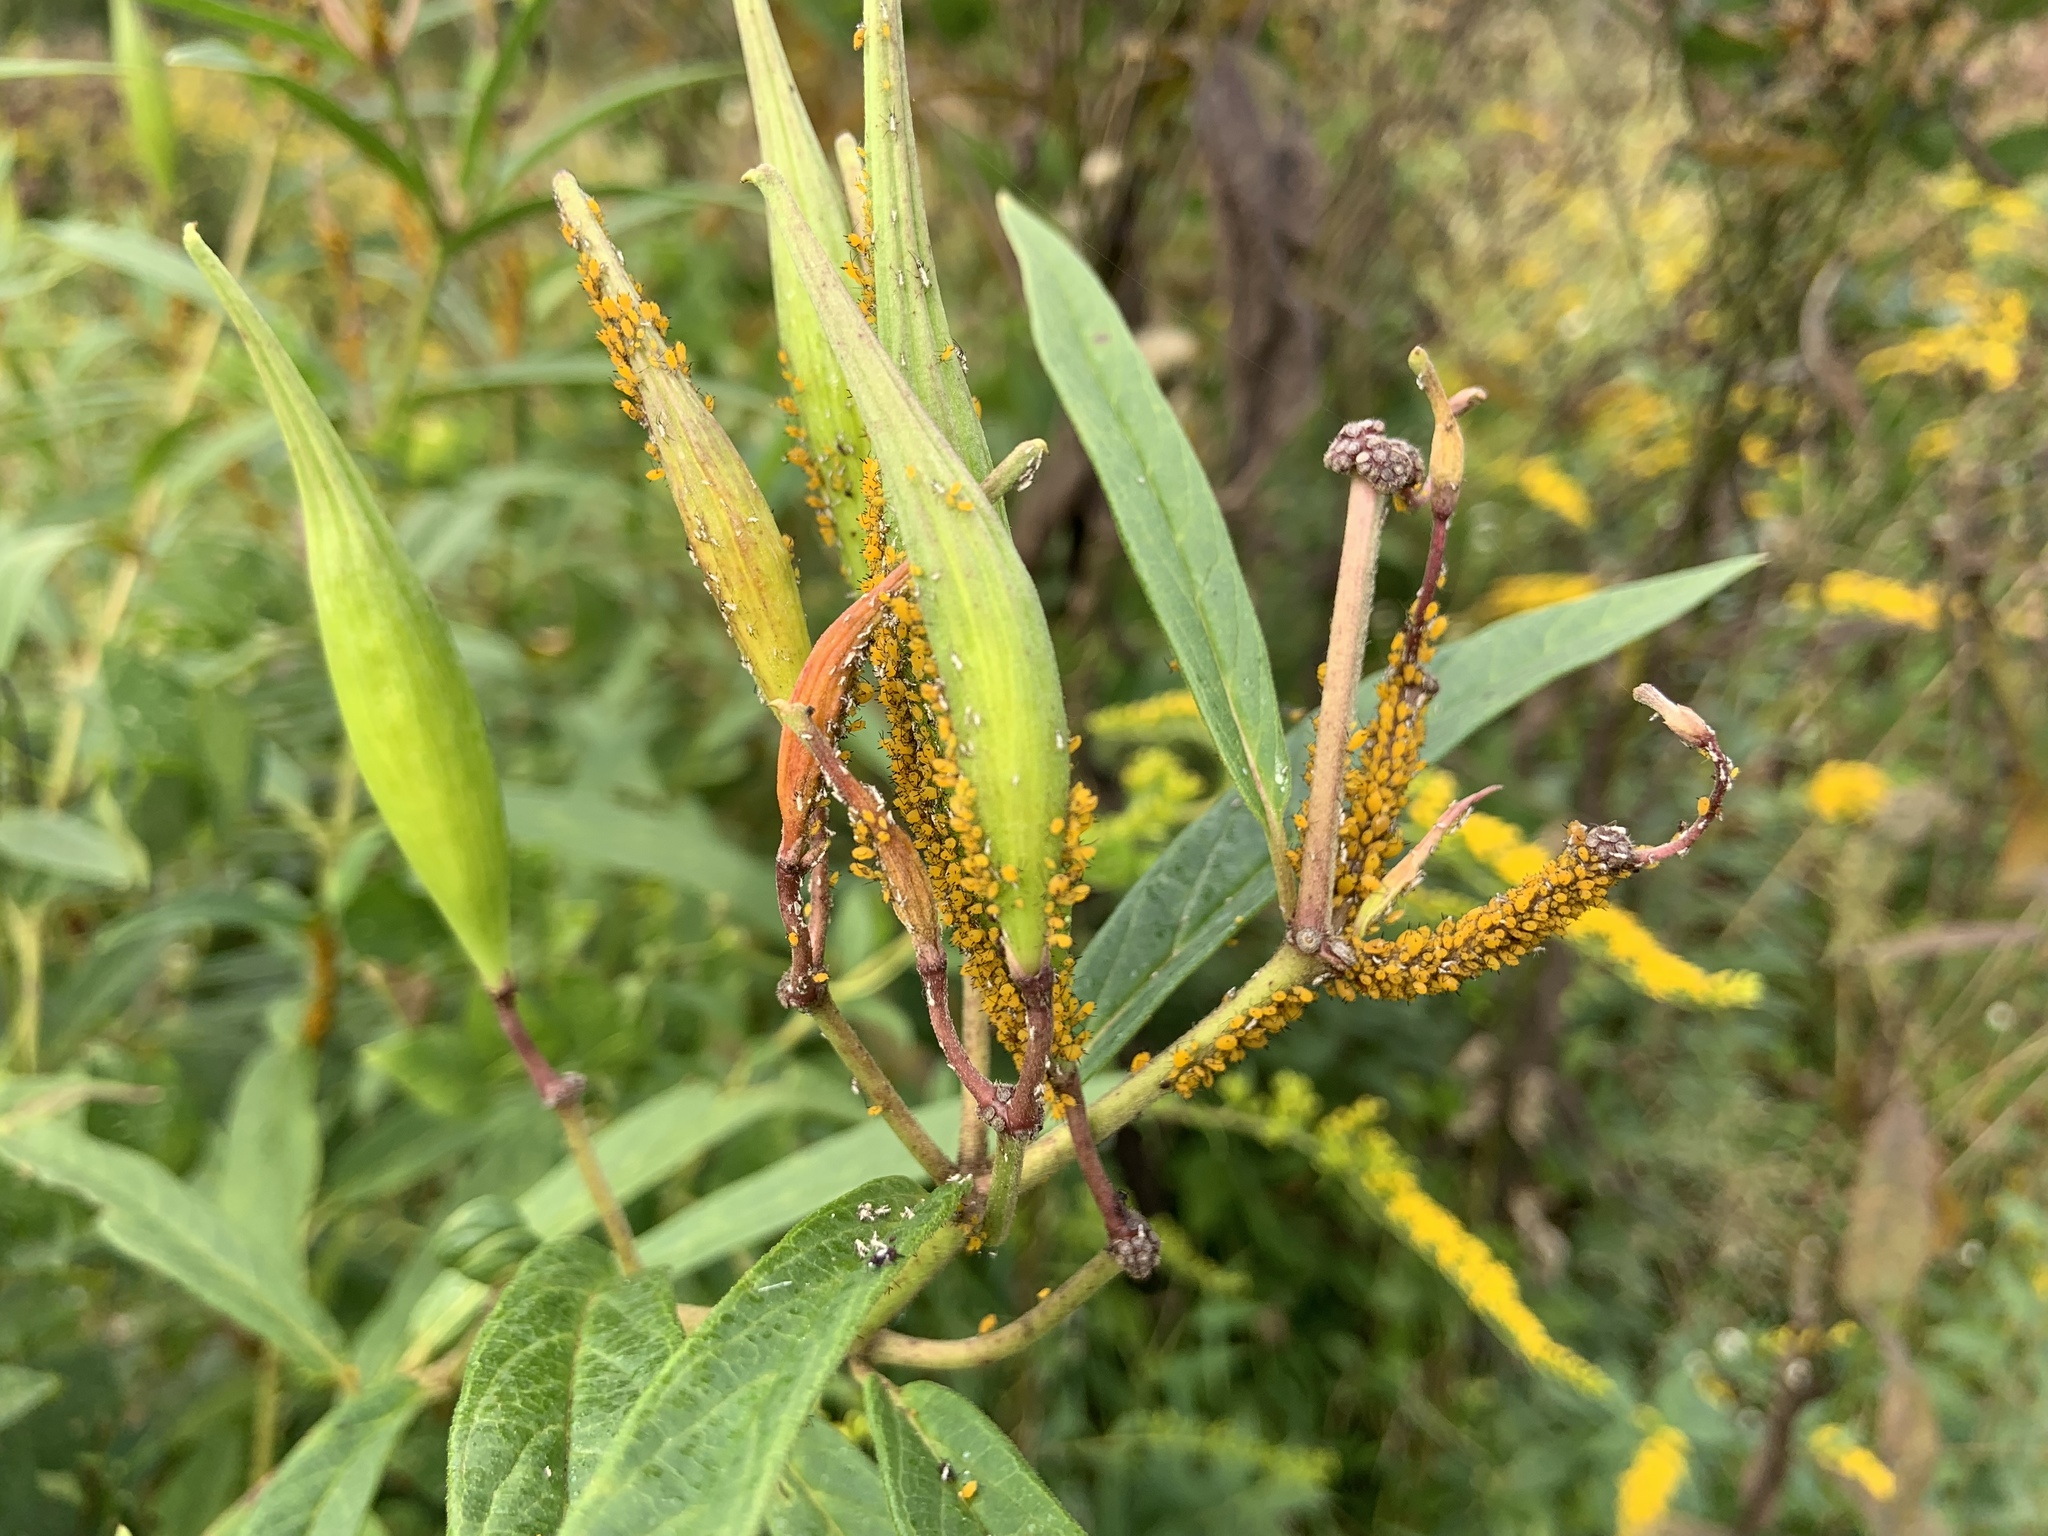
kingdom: Animalia
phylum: Arthropoda
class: Insecta
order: Hemiptera
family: Aphididae
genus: Aphis
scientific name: Aphis nerii
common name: Oleander aphid
